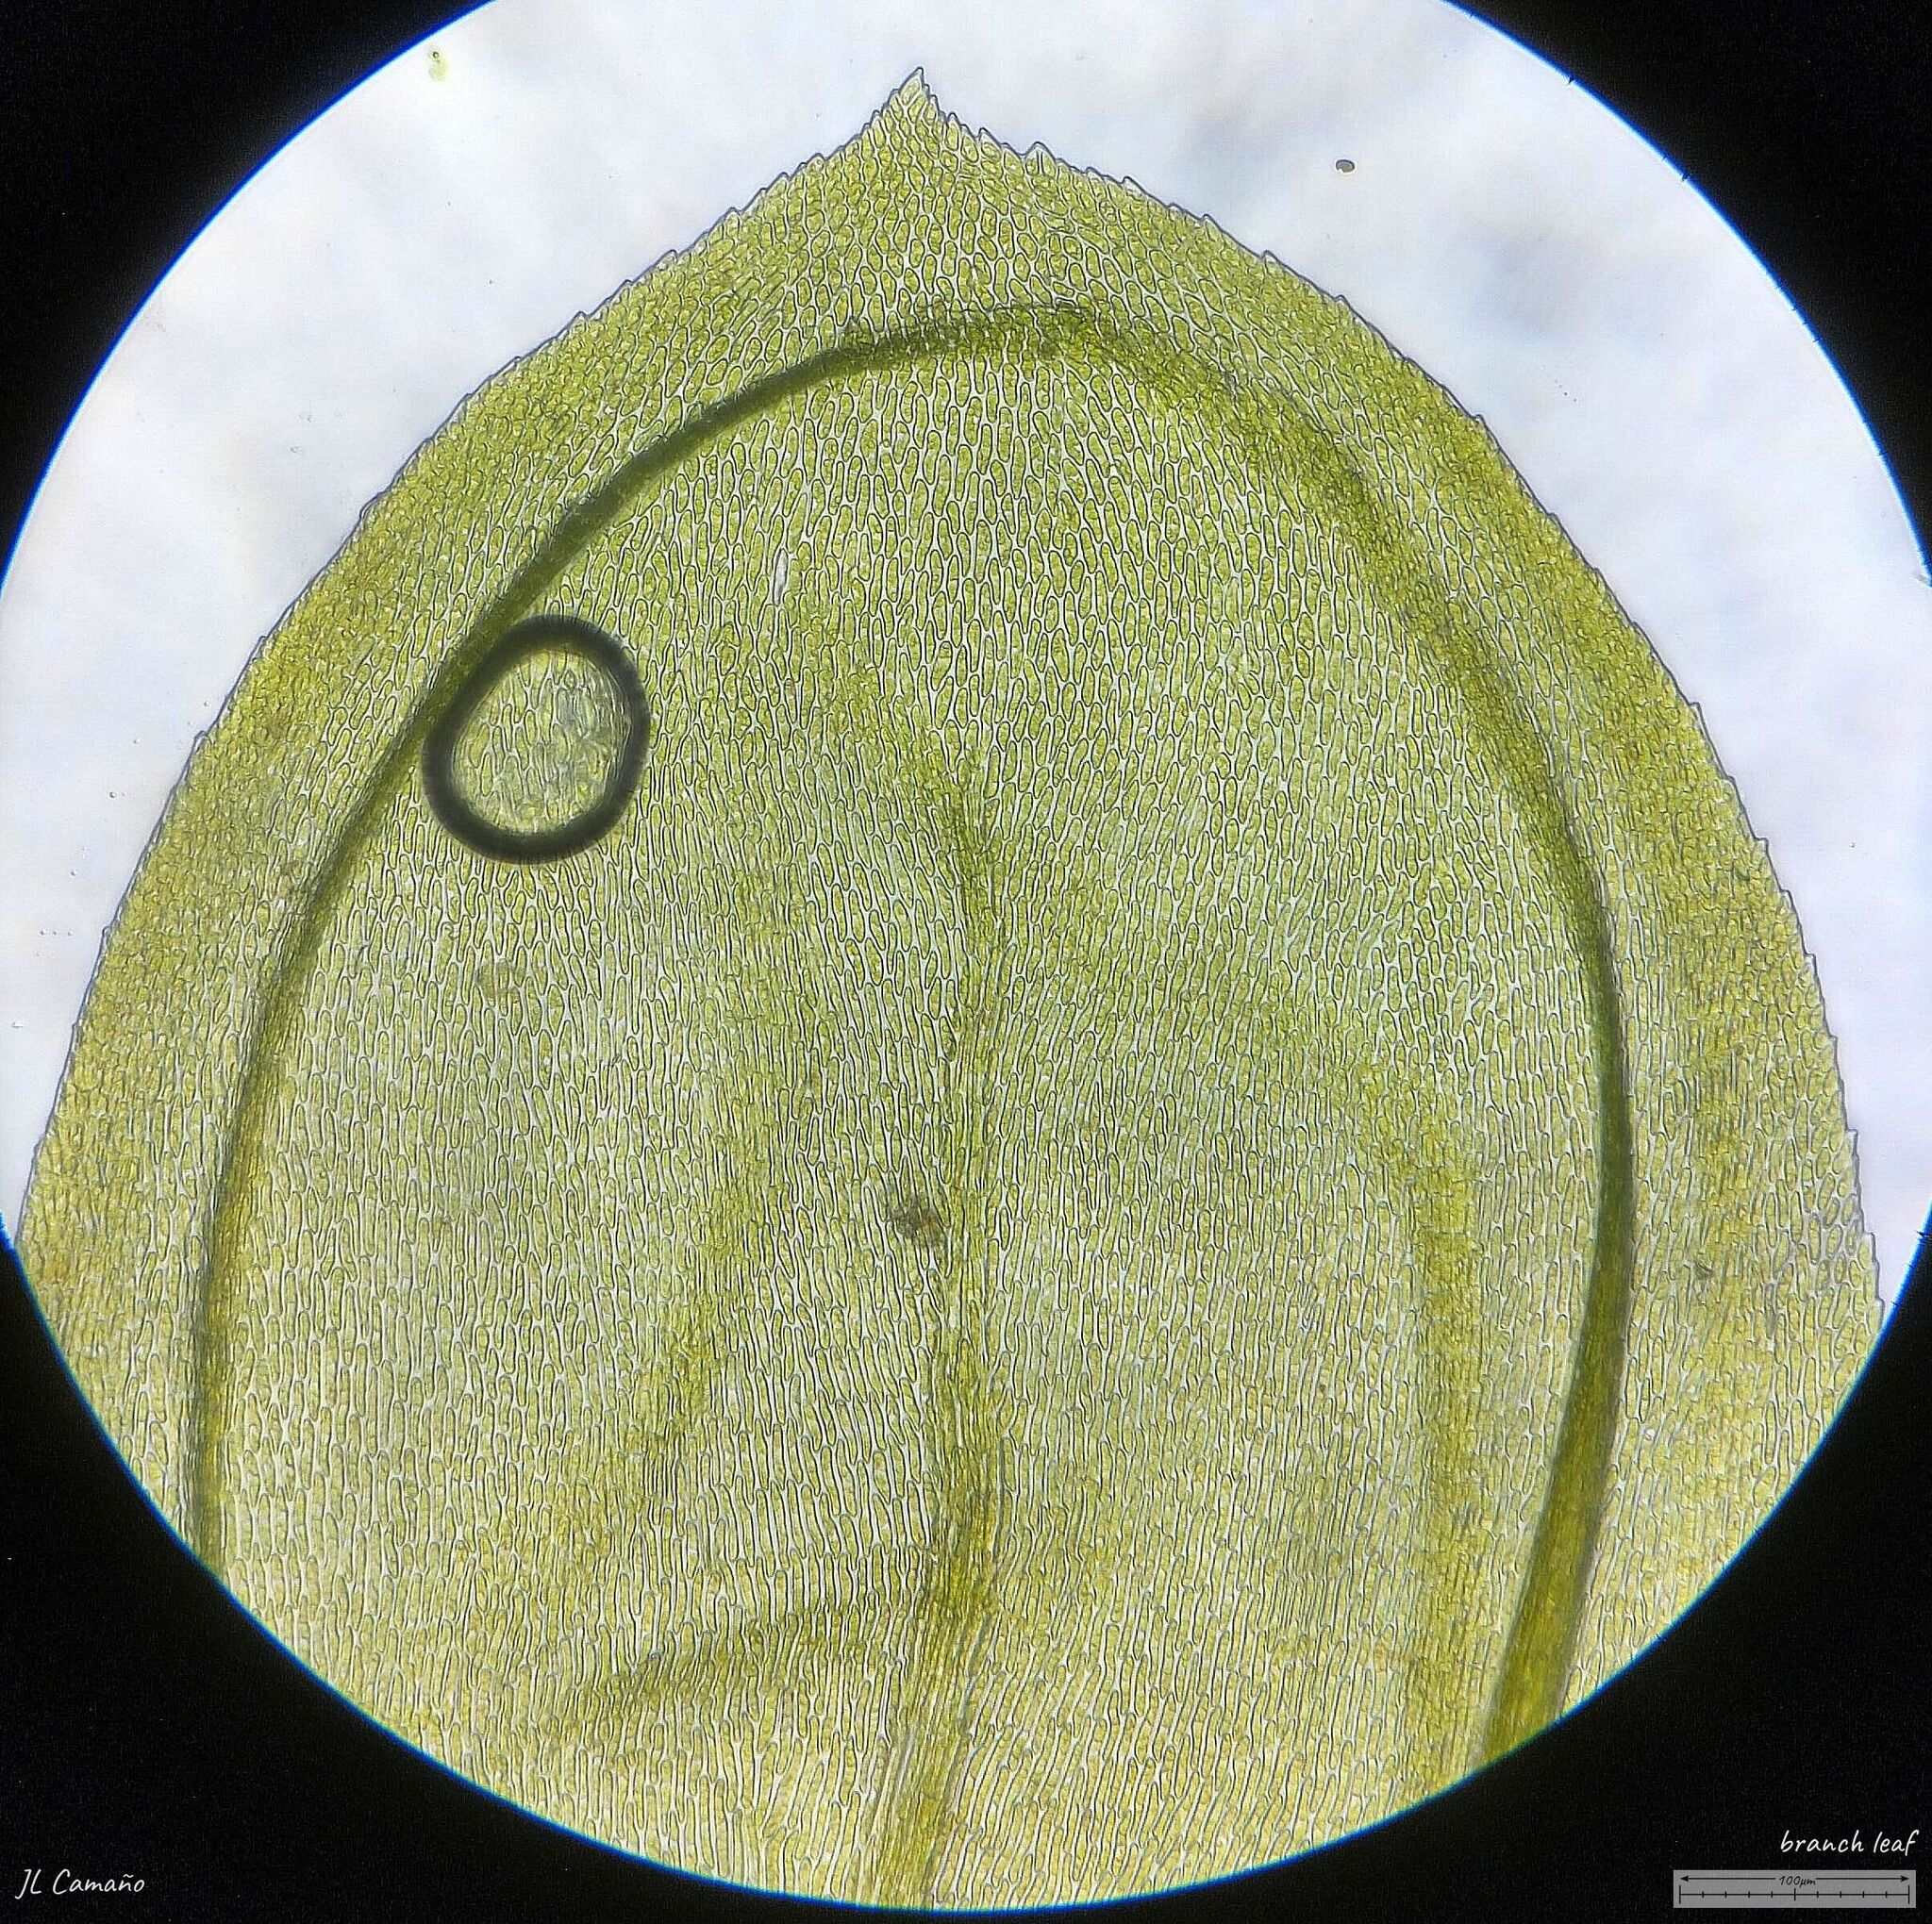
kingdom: Plantae
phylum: Bryophyta
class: Bryopsida
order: Hypnales
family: Lembophyllaceae
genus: Isothecium
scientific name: Isothecium alopecuroides
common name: Larger mouse-tail moss
